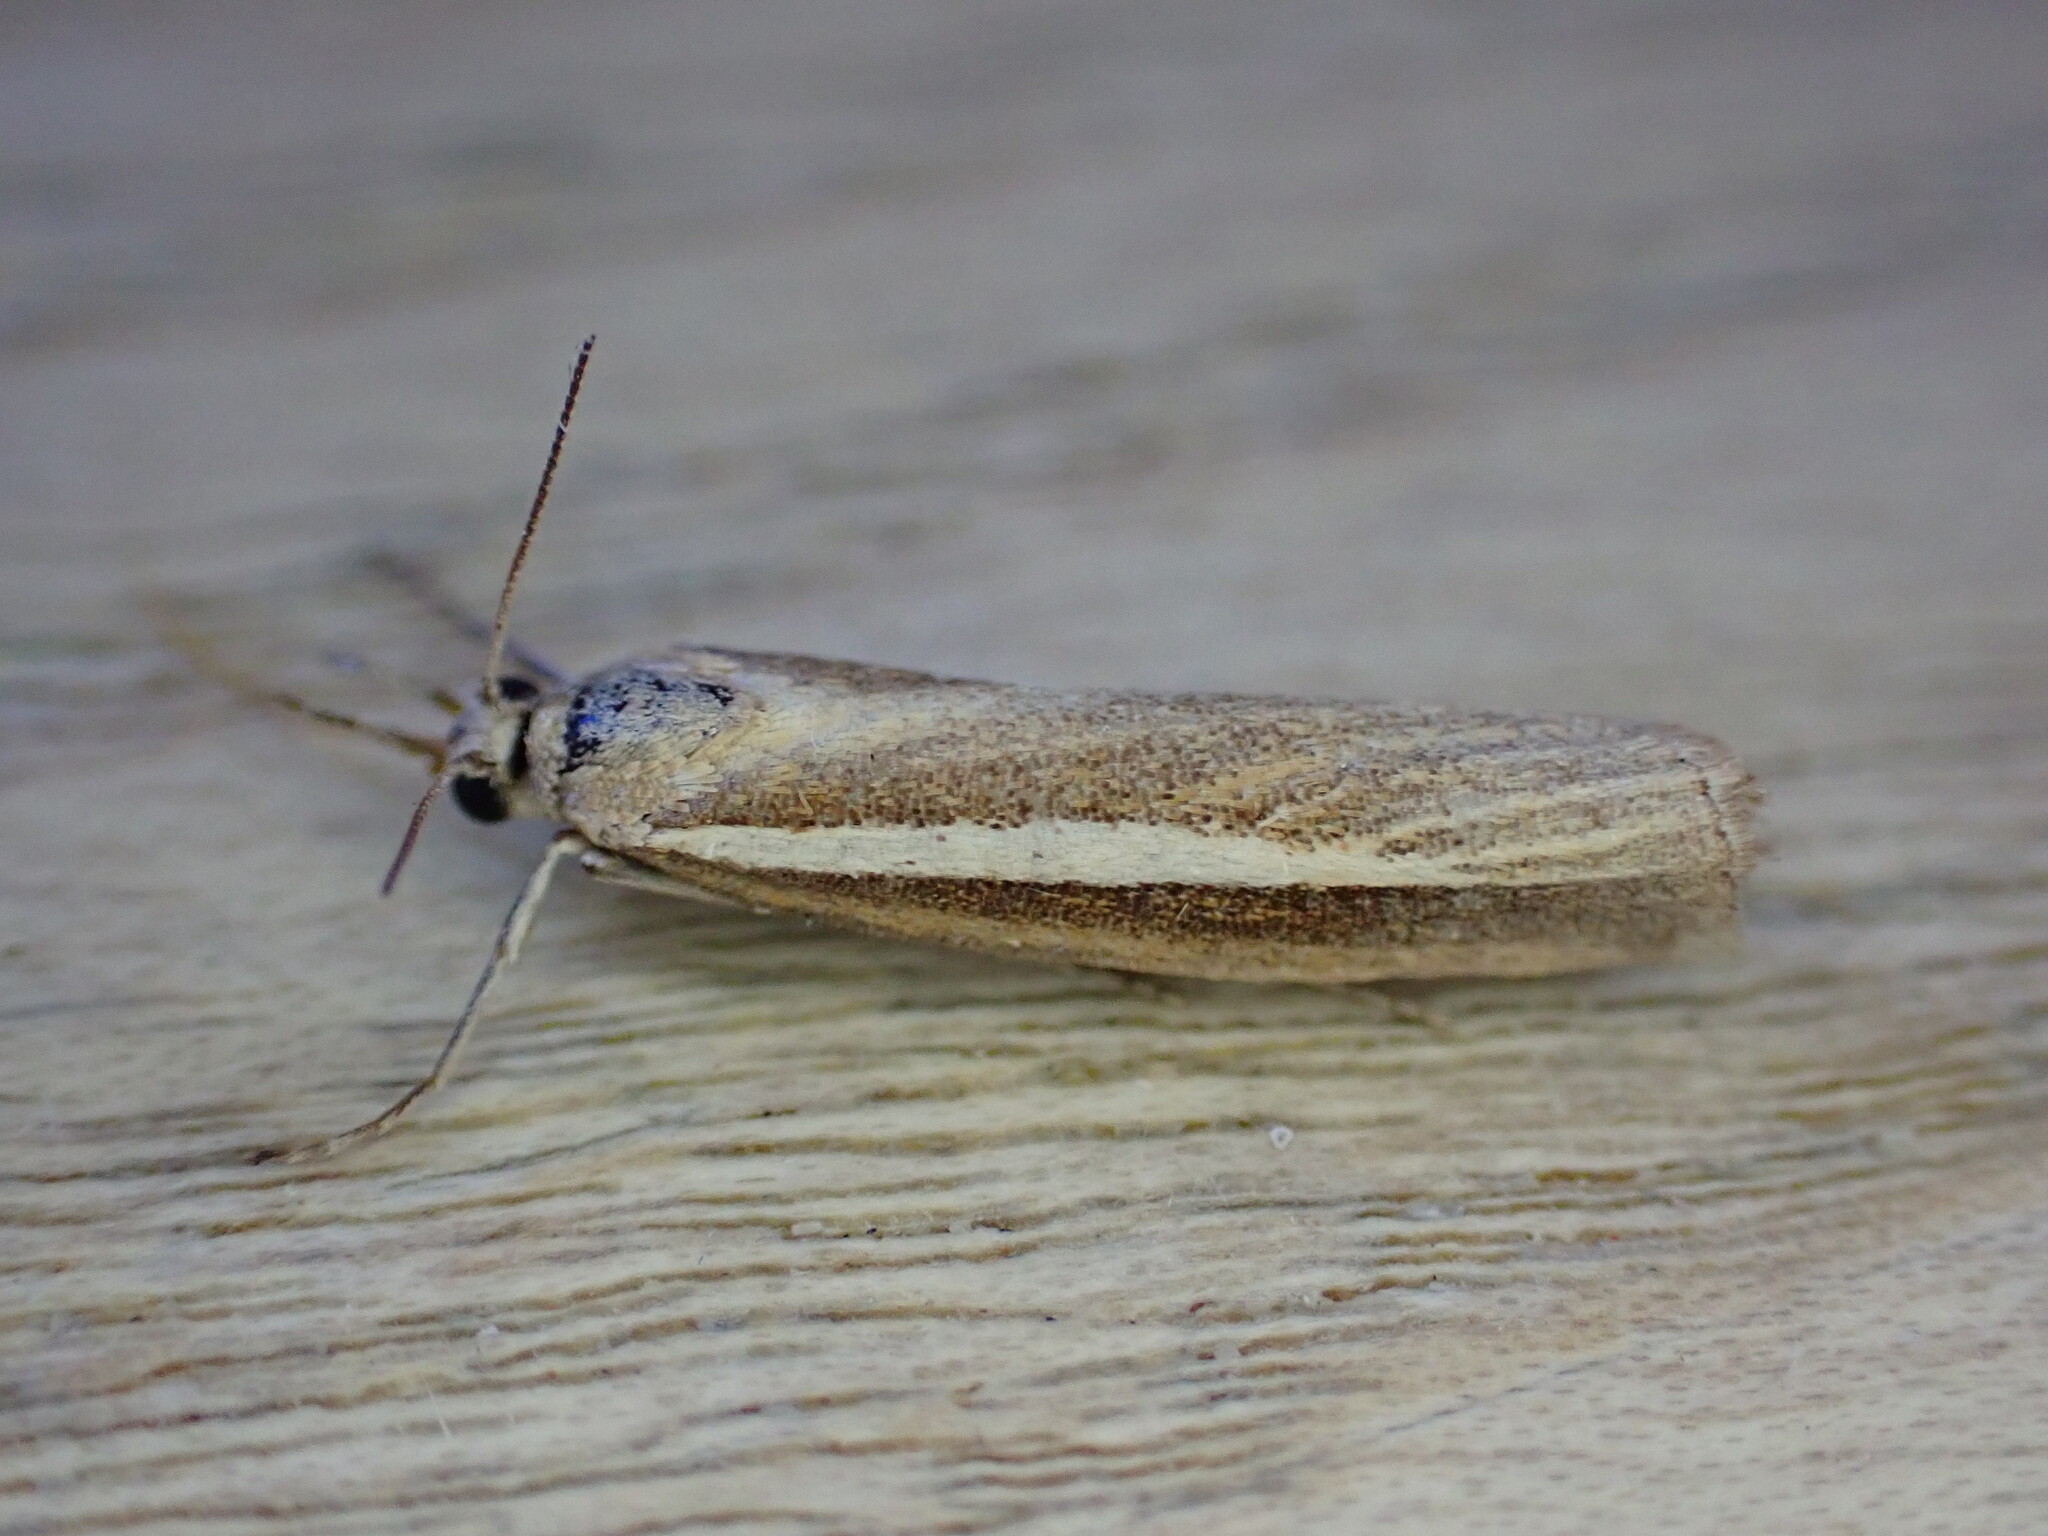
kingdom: Animalia
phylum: Arthropoda
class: Insecta
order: Lepidoptera
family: Crambidae
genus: Agriphila
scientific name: Agriphila tristellus
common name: Common grass-veneer
